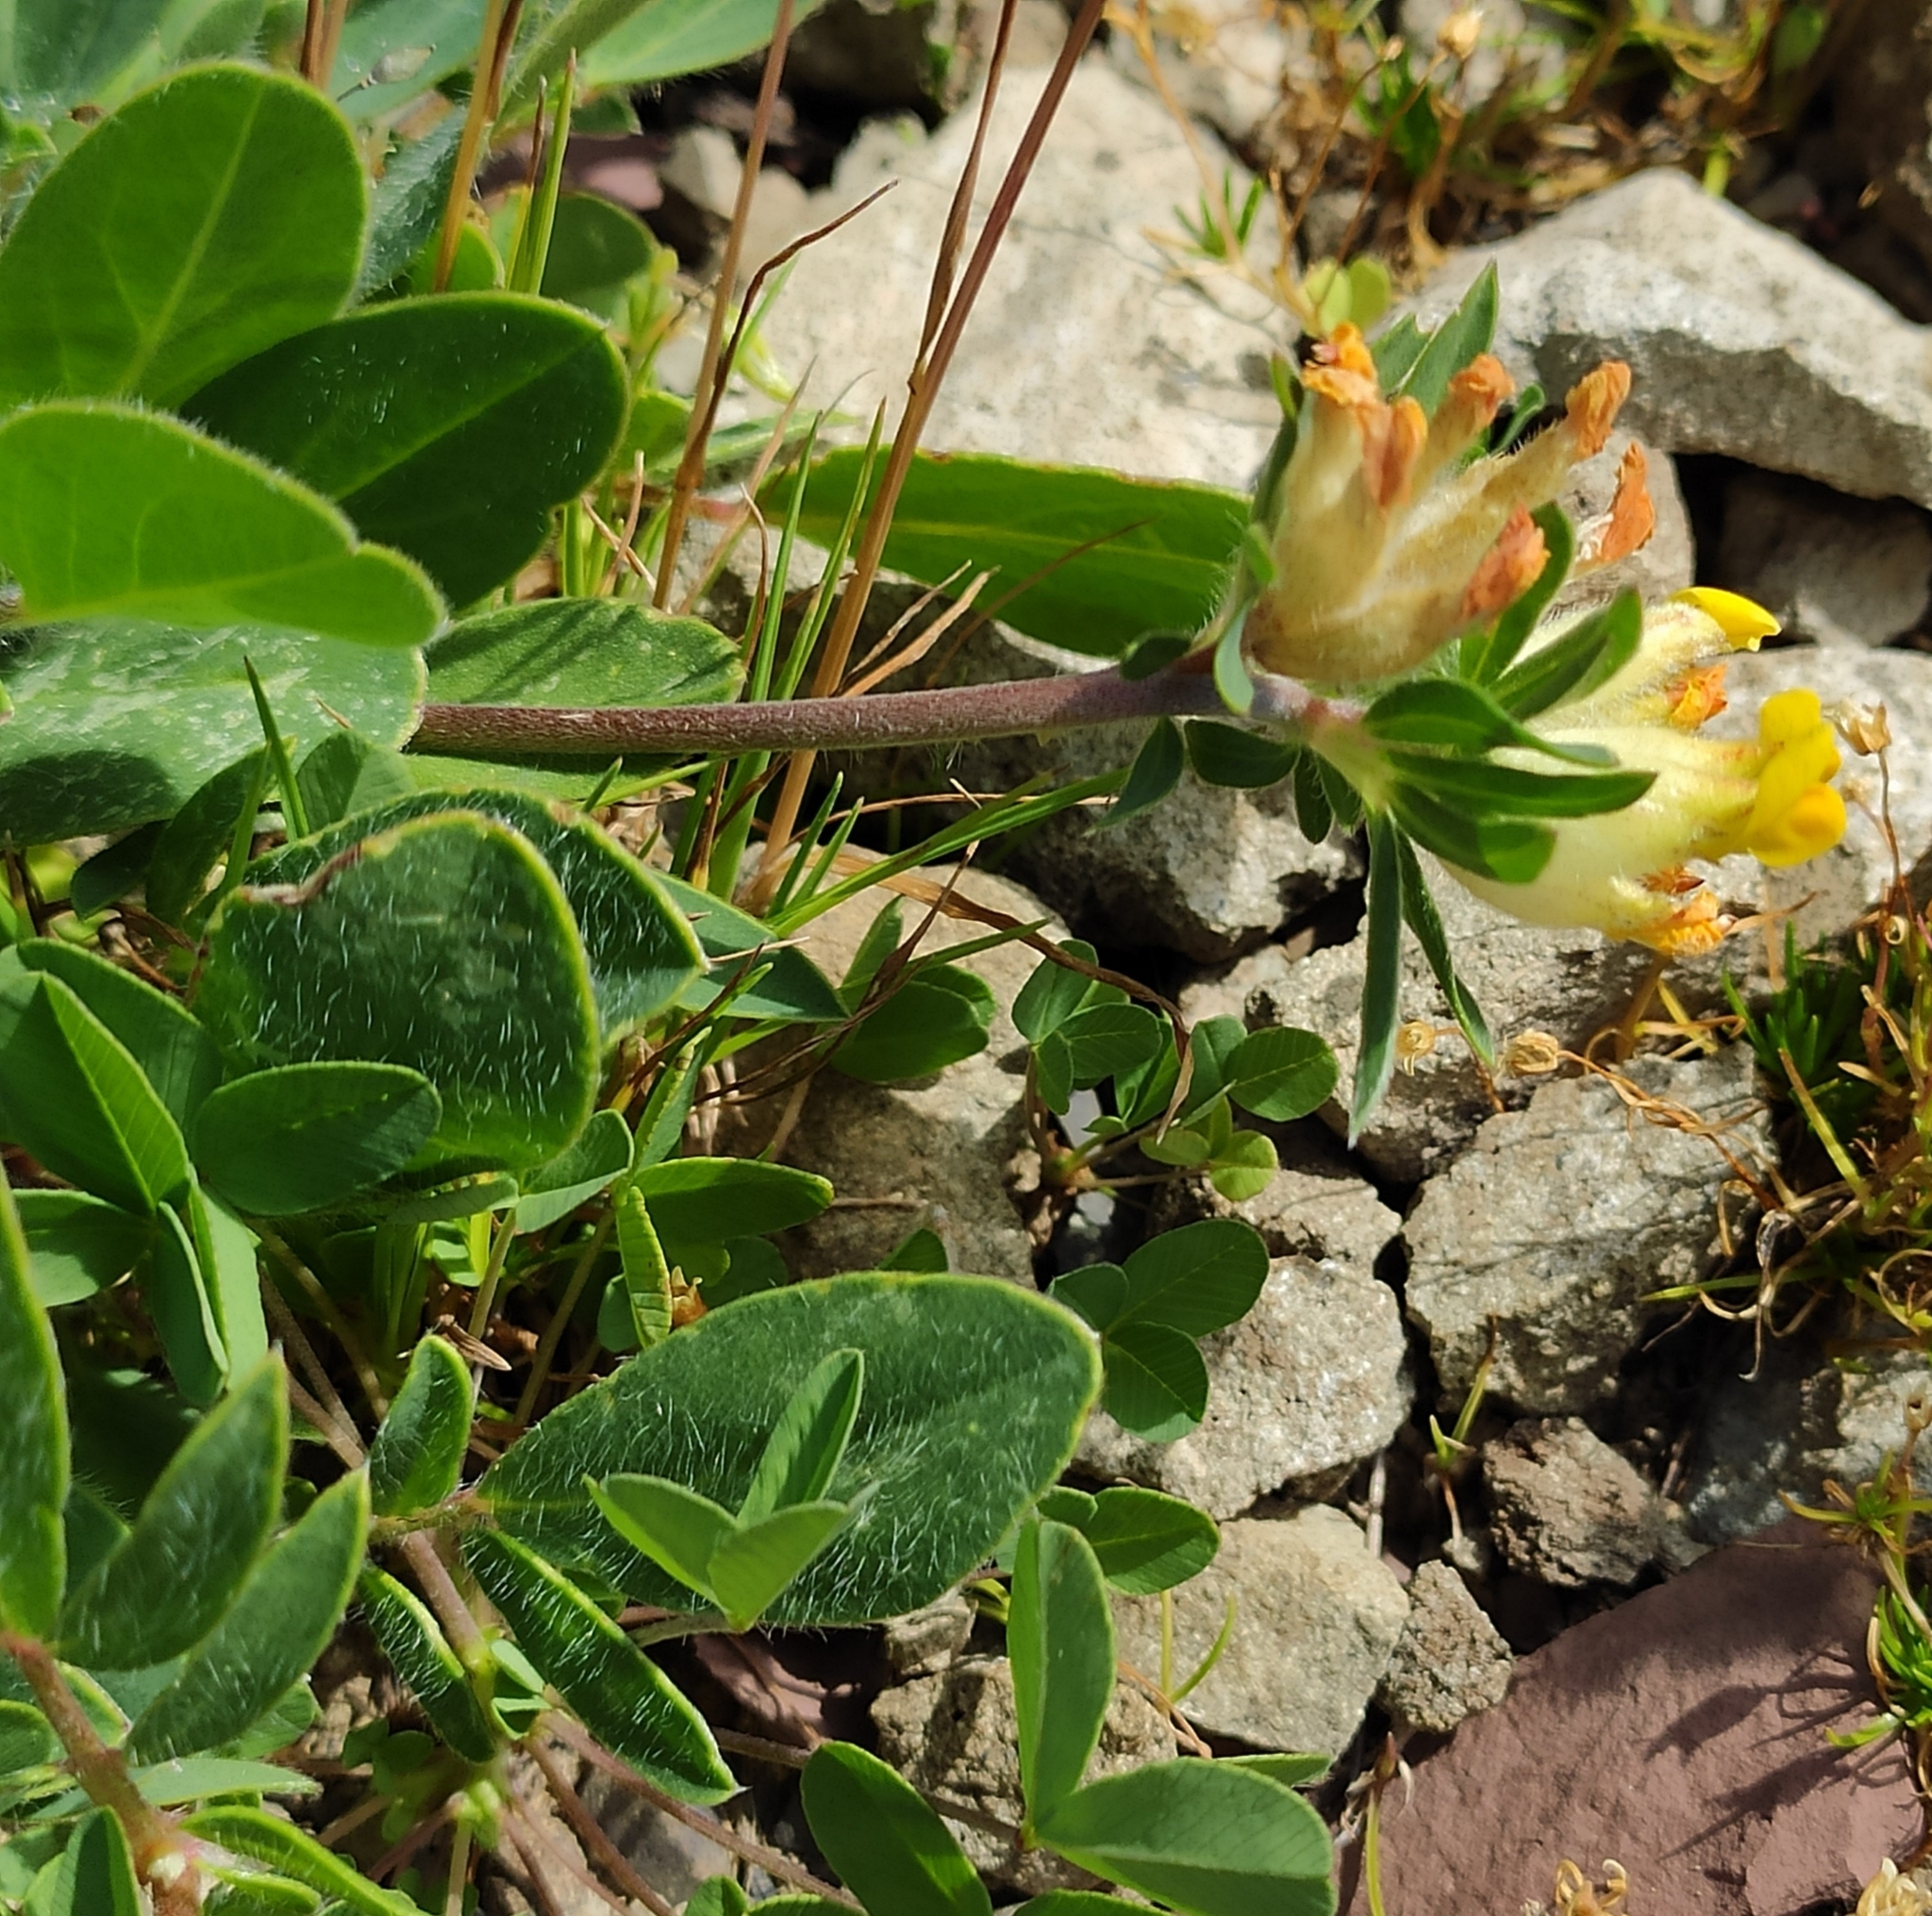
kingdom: Plantae
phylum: Tracheophyta
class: Magnoliopsida
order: Fabales
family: Fabaceae
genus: Anthyllis
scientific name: Anthyllis vulneraria
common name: Kidney vetch
